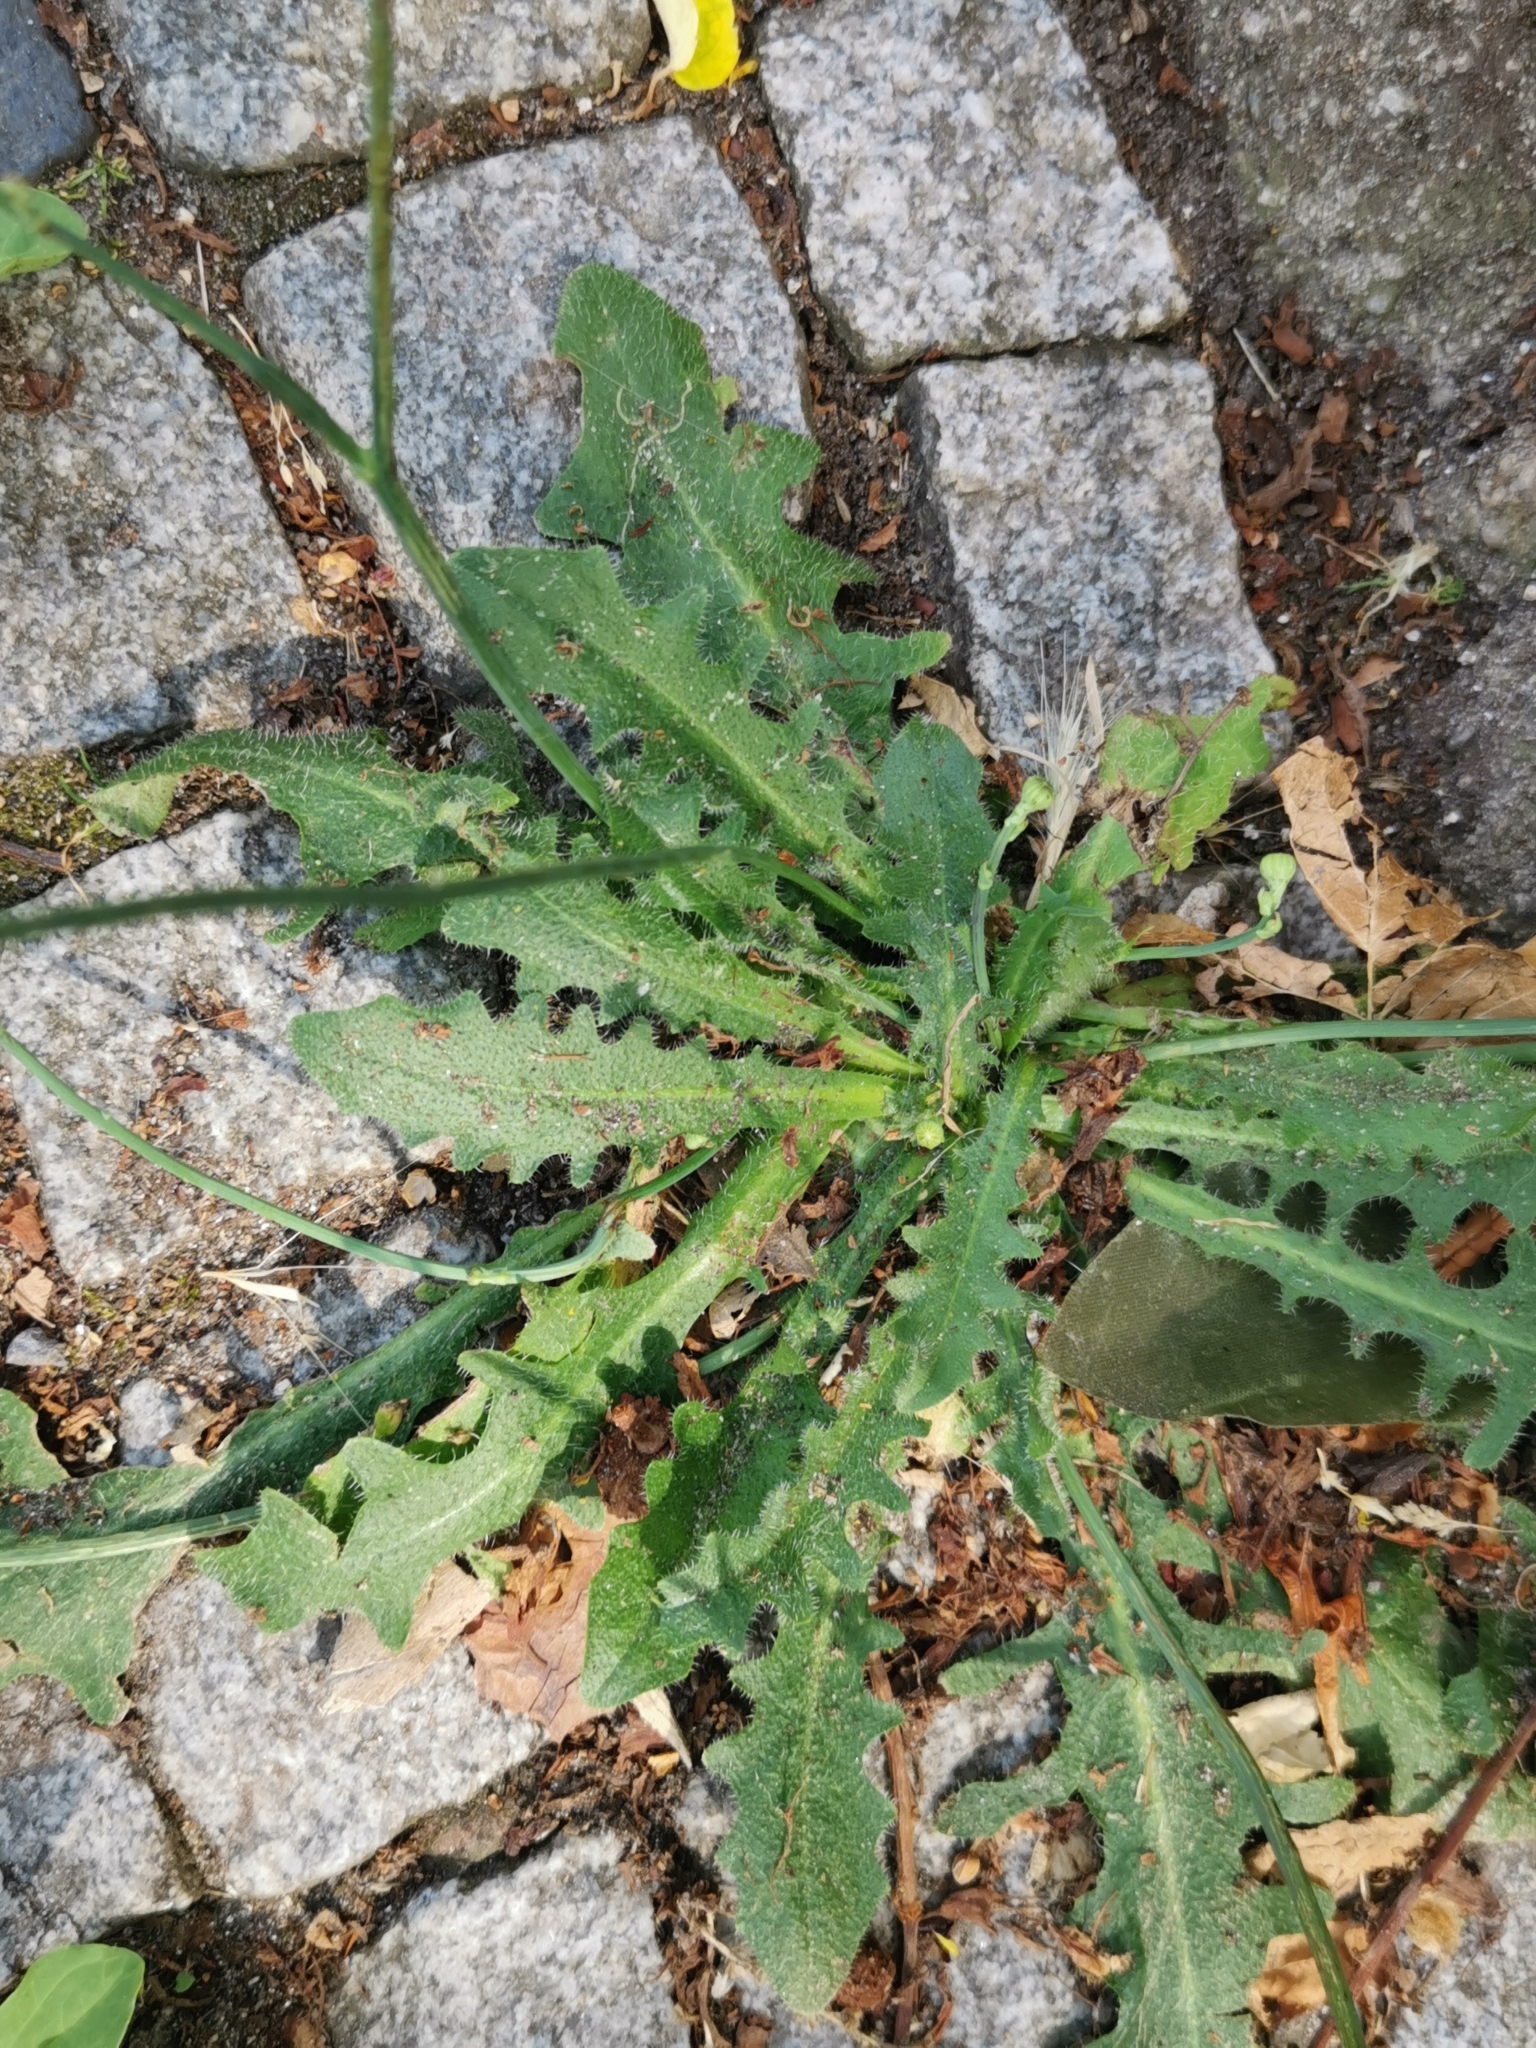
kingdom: Plantae
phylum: Tracheophyta
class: Magnoliopsida
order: Asterales
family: Asteraceae
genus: Hypochaeris
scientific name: Hypochaeris radicata
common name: Flatweed
